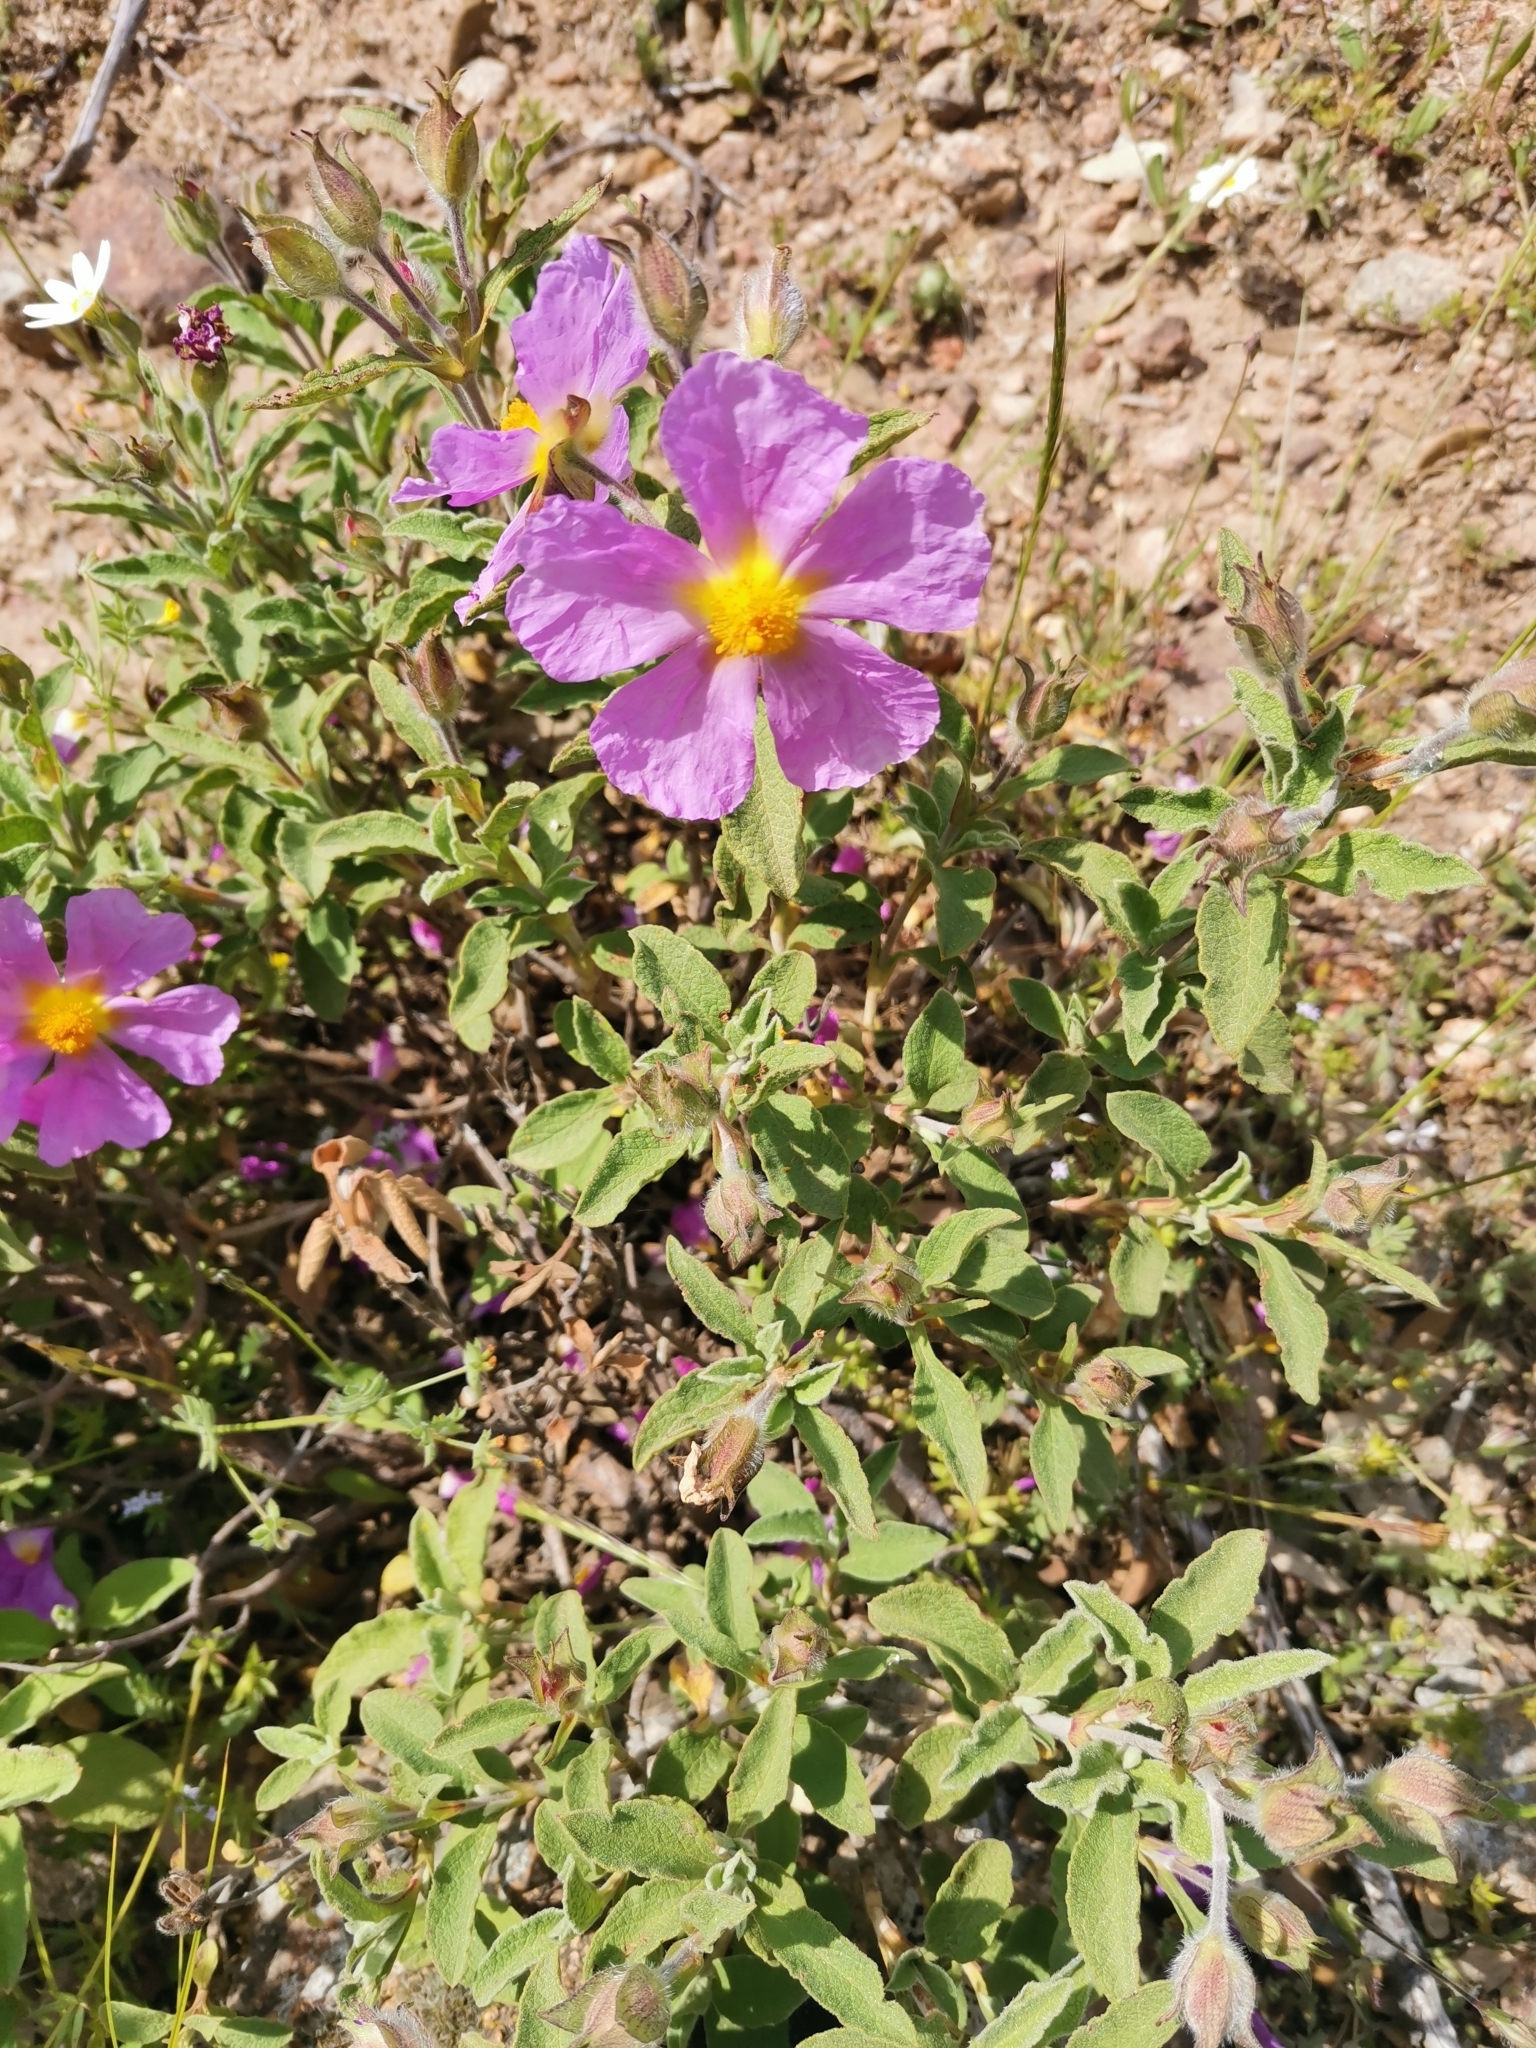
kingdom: Plantae
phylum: Tracheophyta
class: Magnoliopsida
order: Malvales
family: Cistaceae
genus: Cistus
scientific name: Cistus creticus
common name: Cretan rockrose
